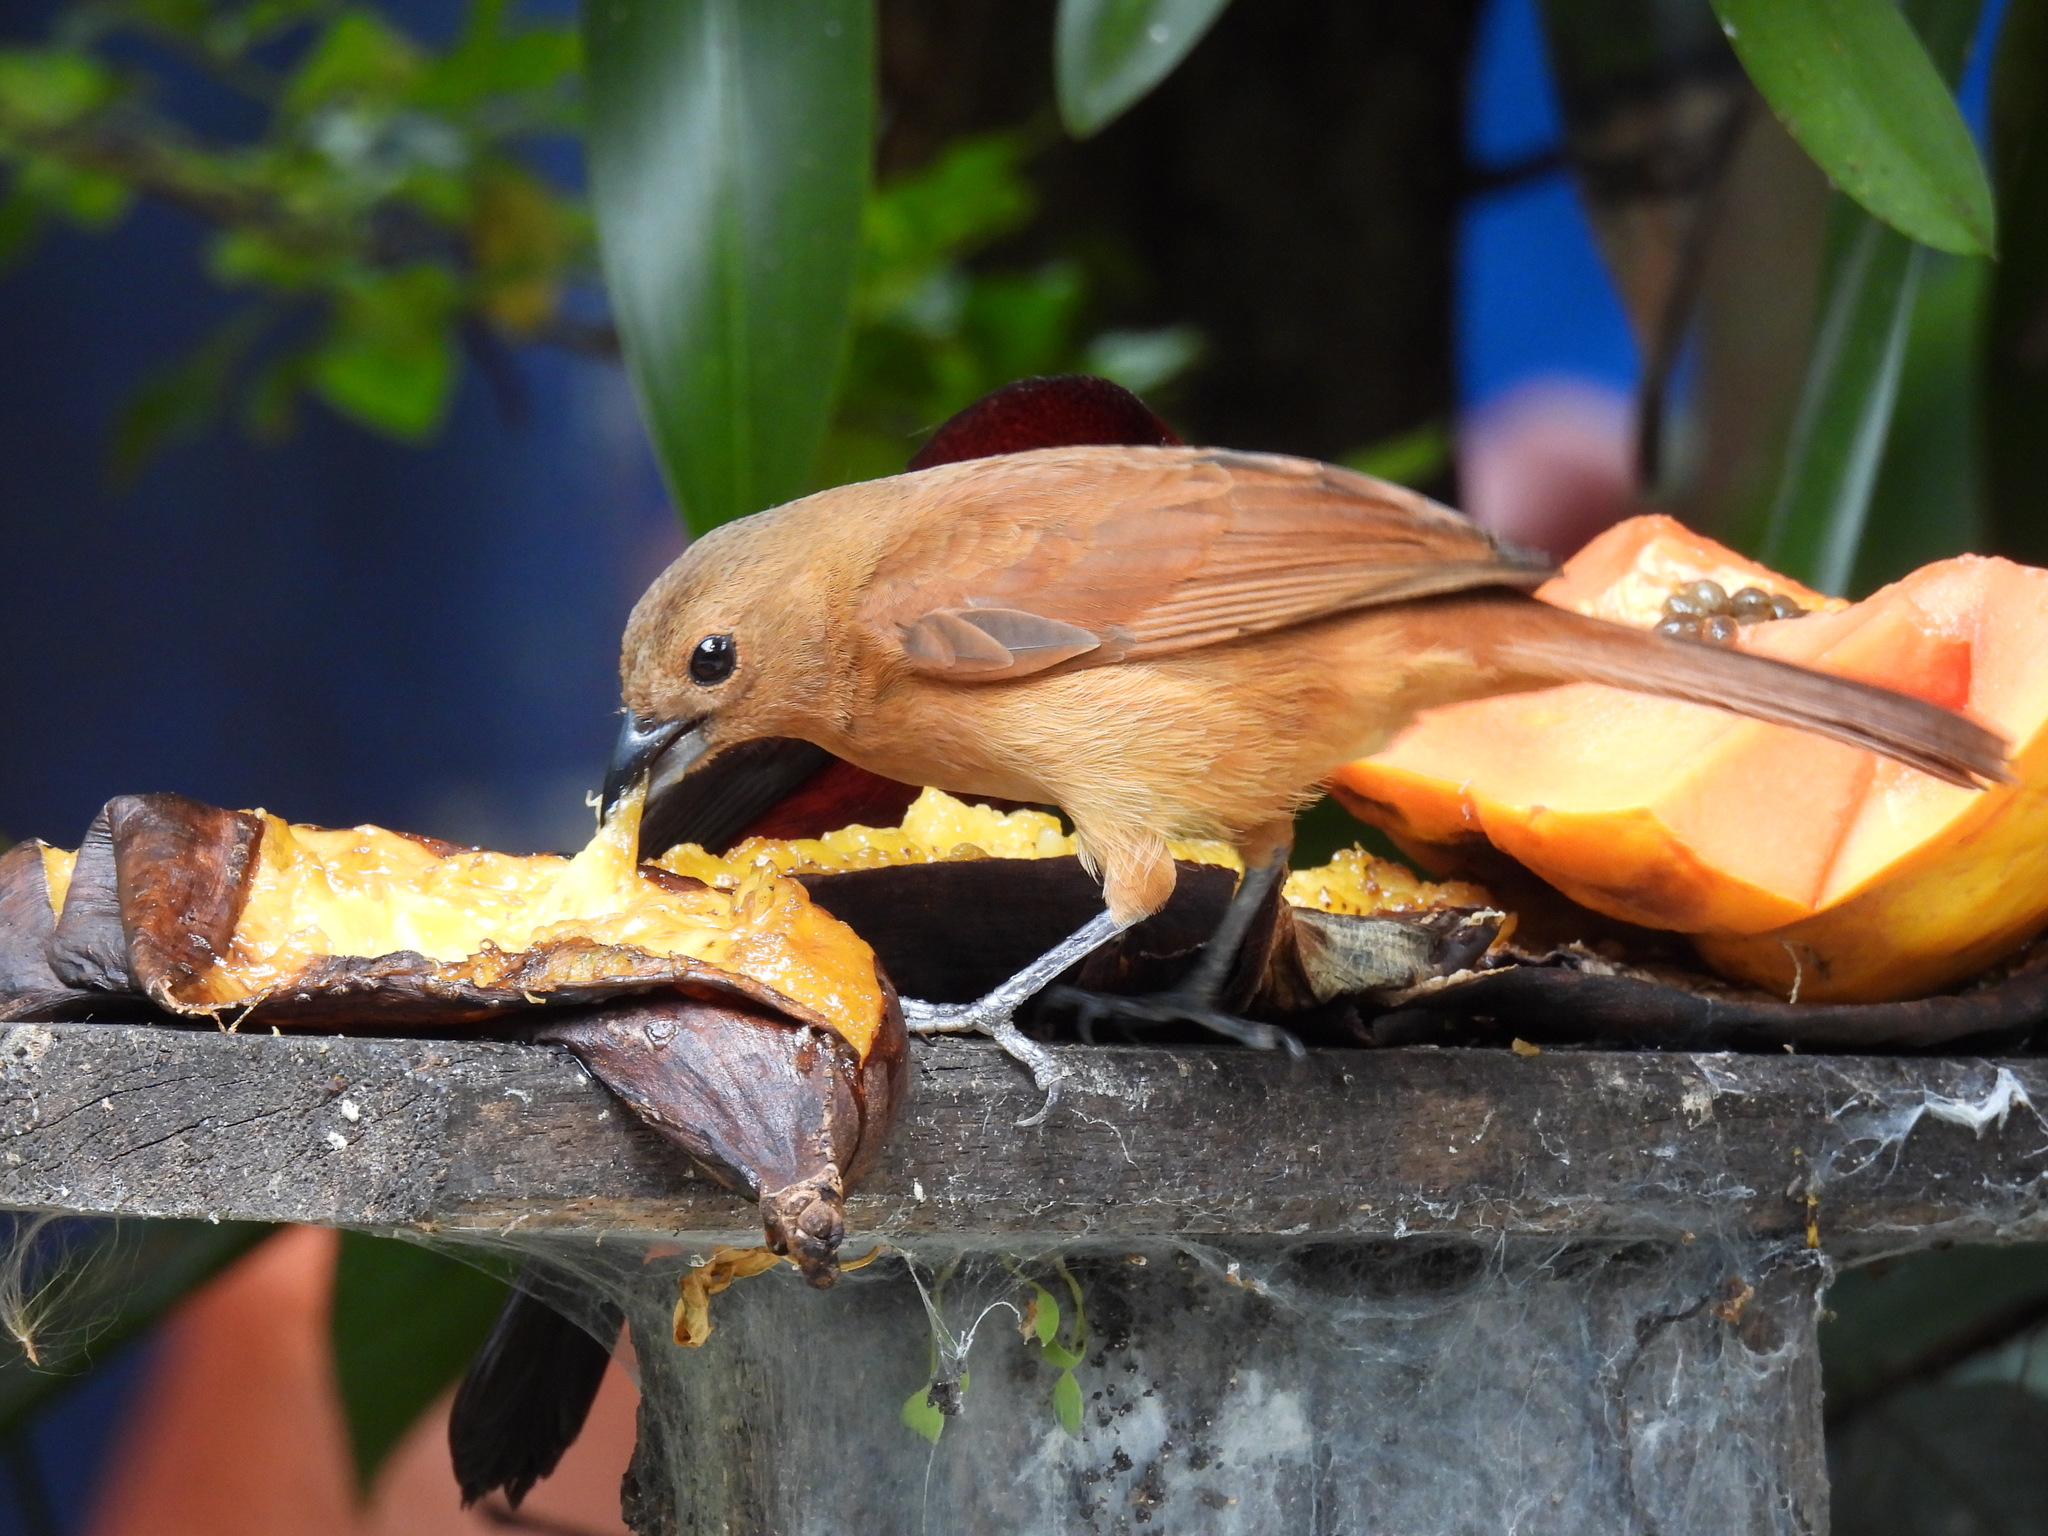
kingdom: Animalia
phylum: Chordata
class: Aves
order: Passeriformes
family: Thraupidae
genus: Tachyphonus
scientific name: Tachyphonus rufus
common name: White-lined tanager
